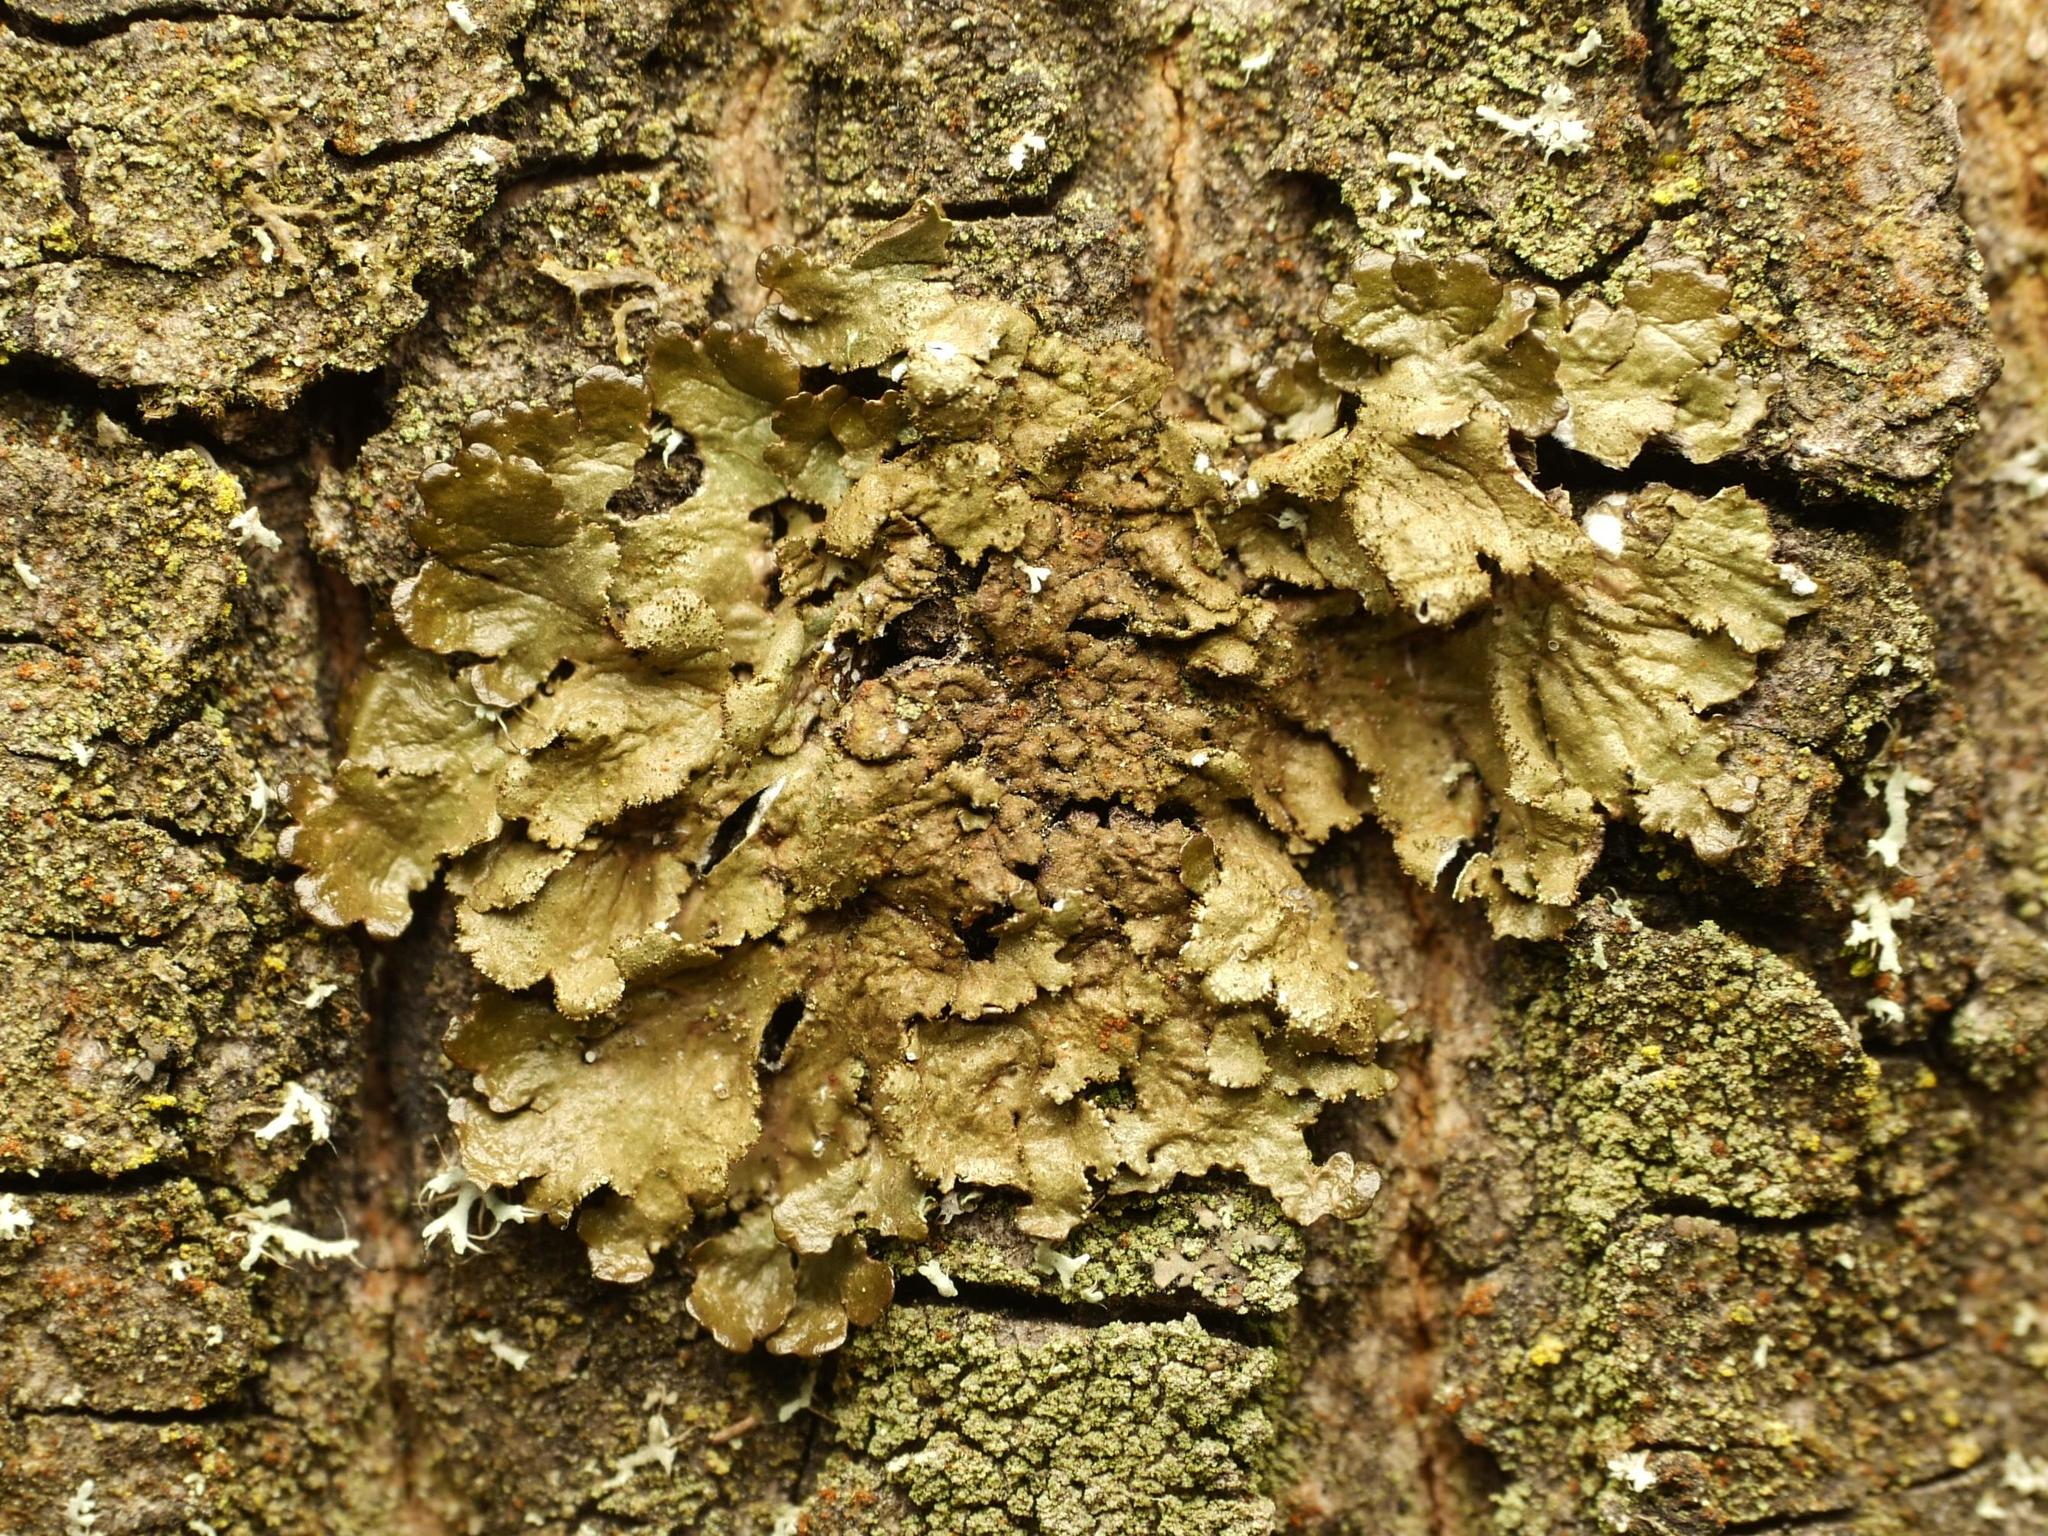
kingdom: Fungi
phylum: Ascomycota
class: Lecanoromycetes
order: Lecanorales
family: Parmeliaceae
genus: Melanelixia
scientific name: Melanelixia glabratula
